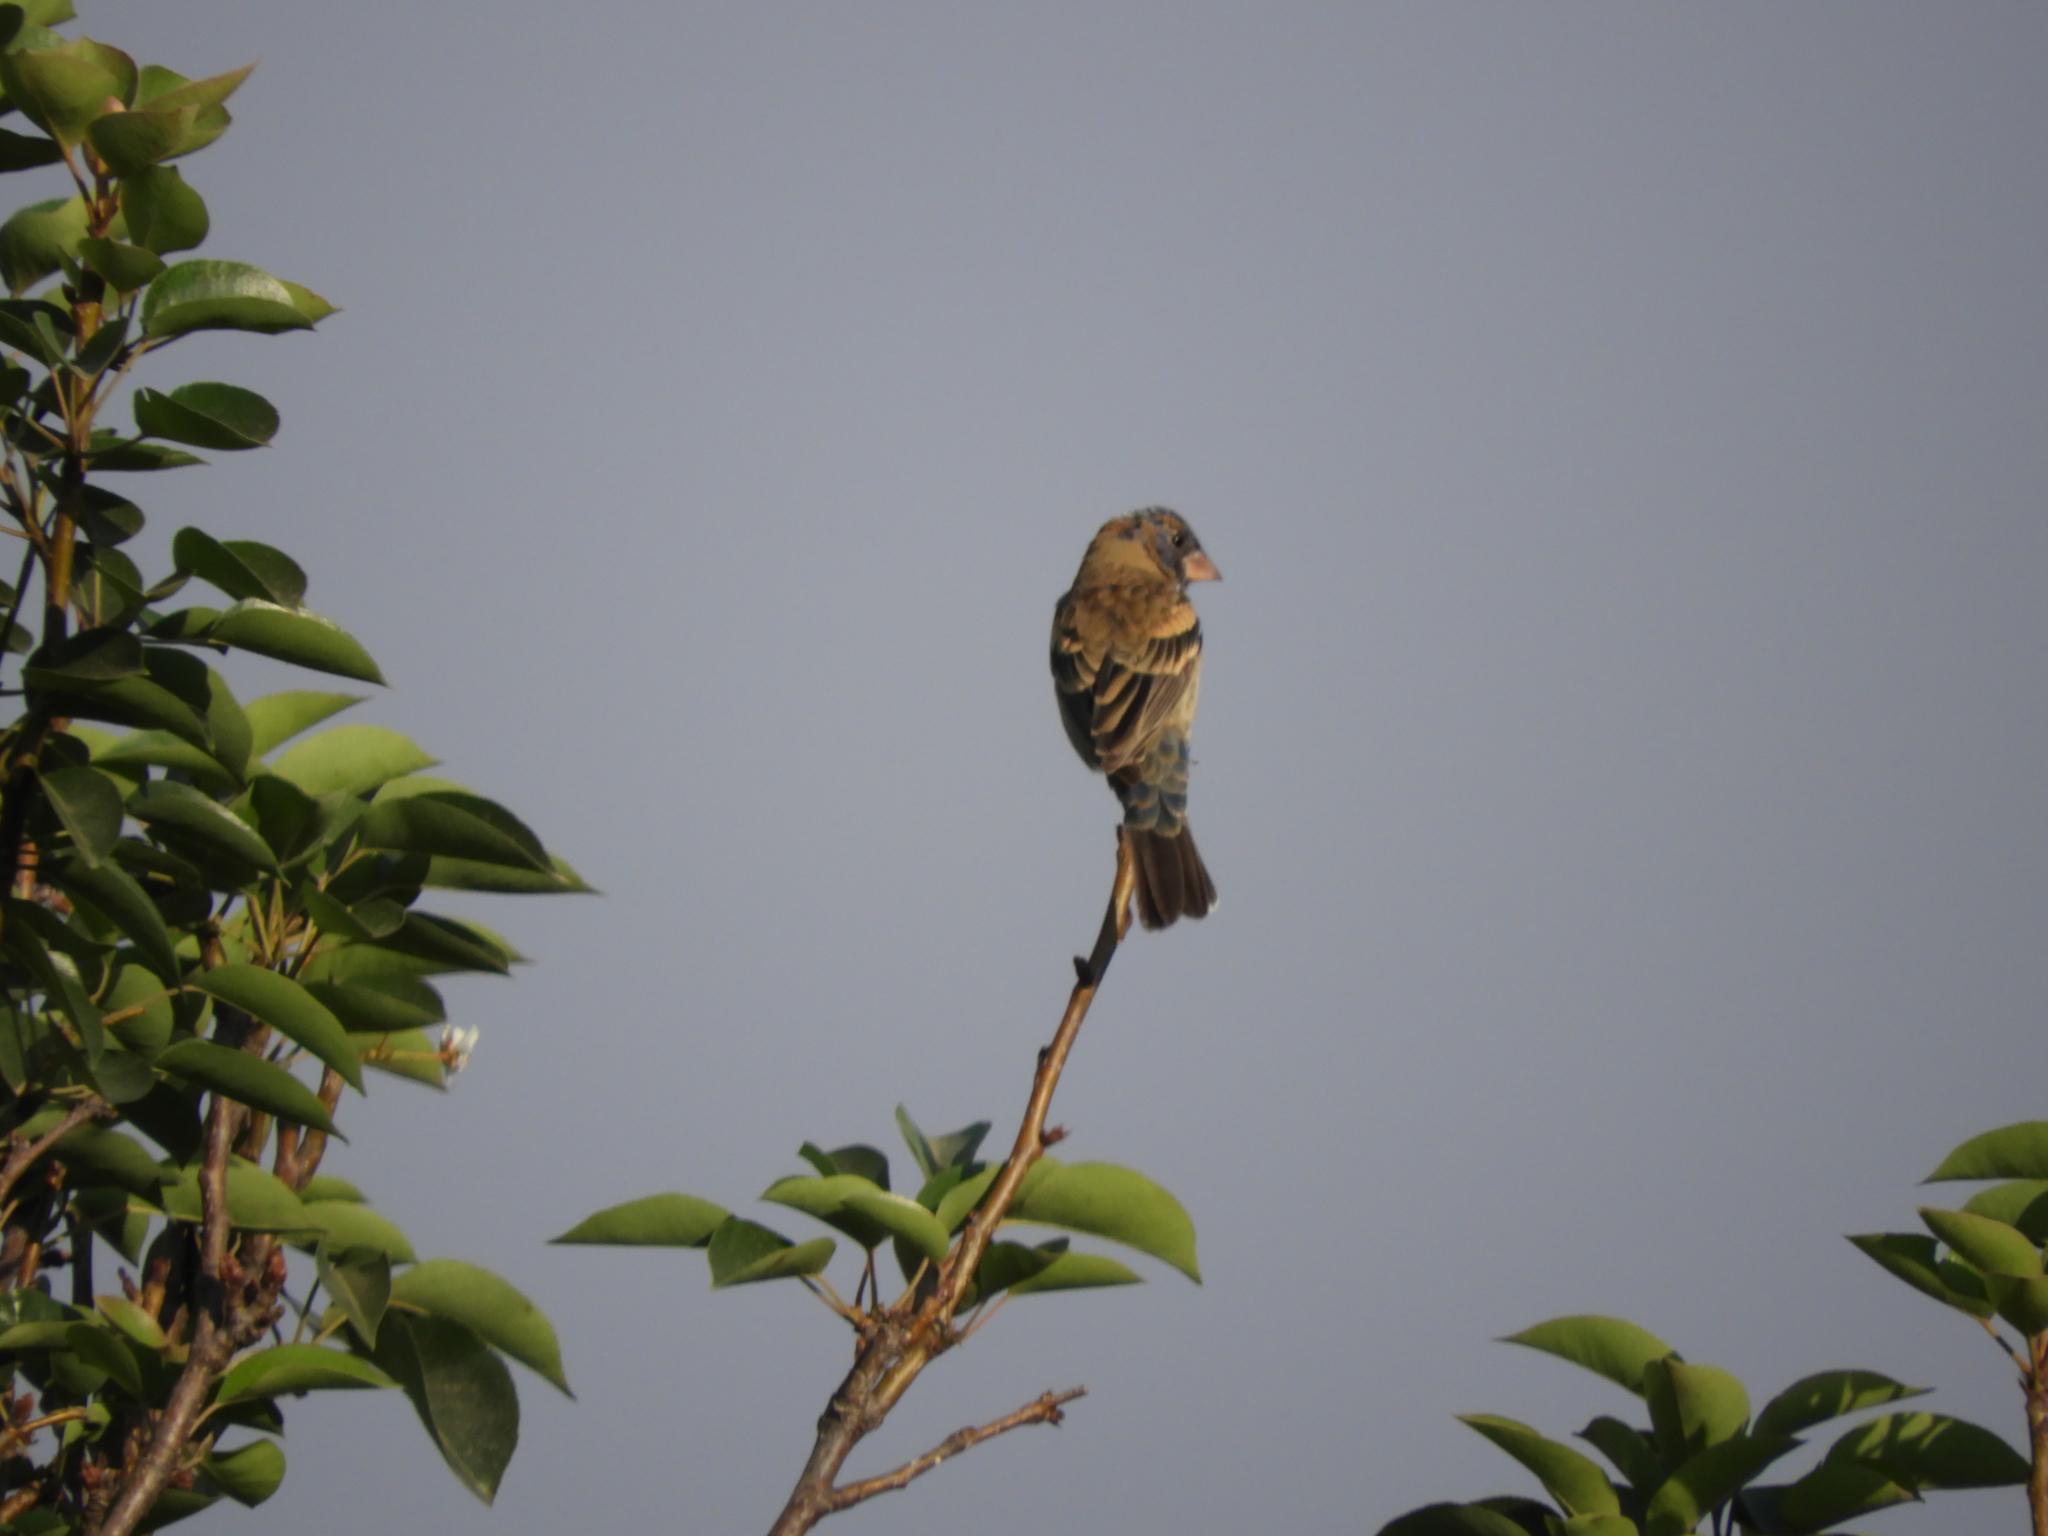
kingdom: Animalia
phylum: Chordata
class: Aves
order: Passeriformes
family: Cardinalidae
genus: Passerina
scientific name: Passerina caerulea
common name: Blue grosbeak
